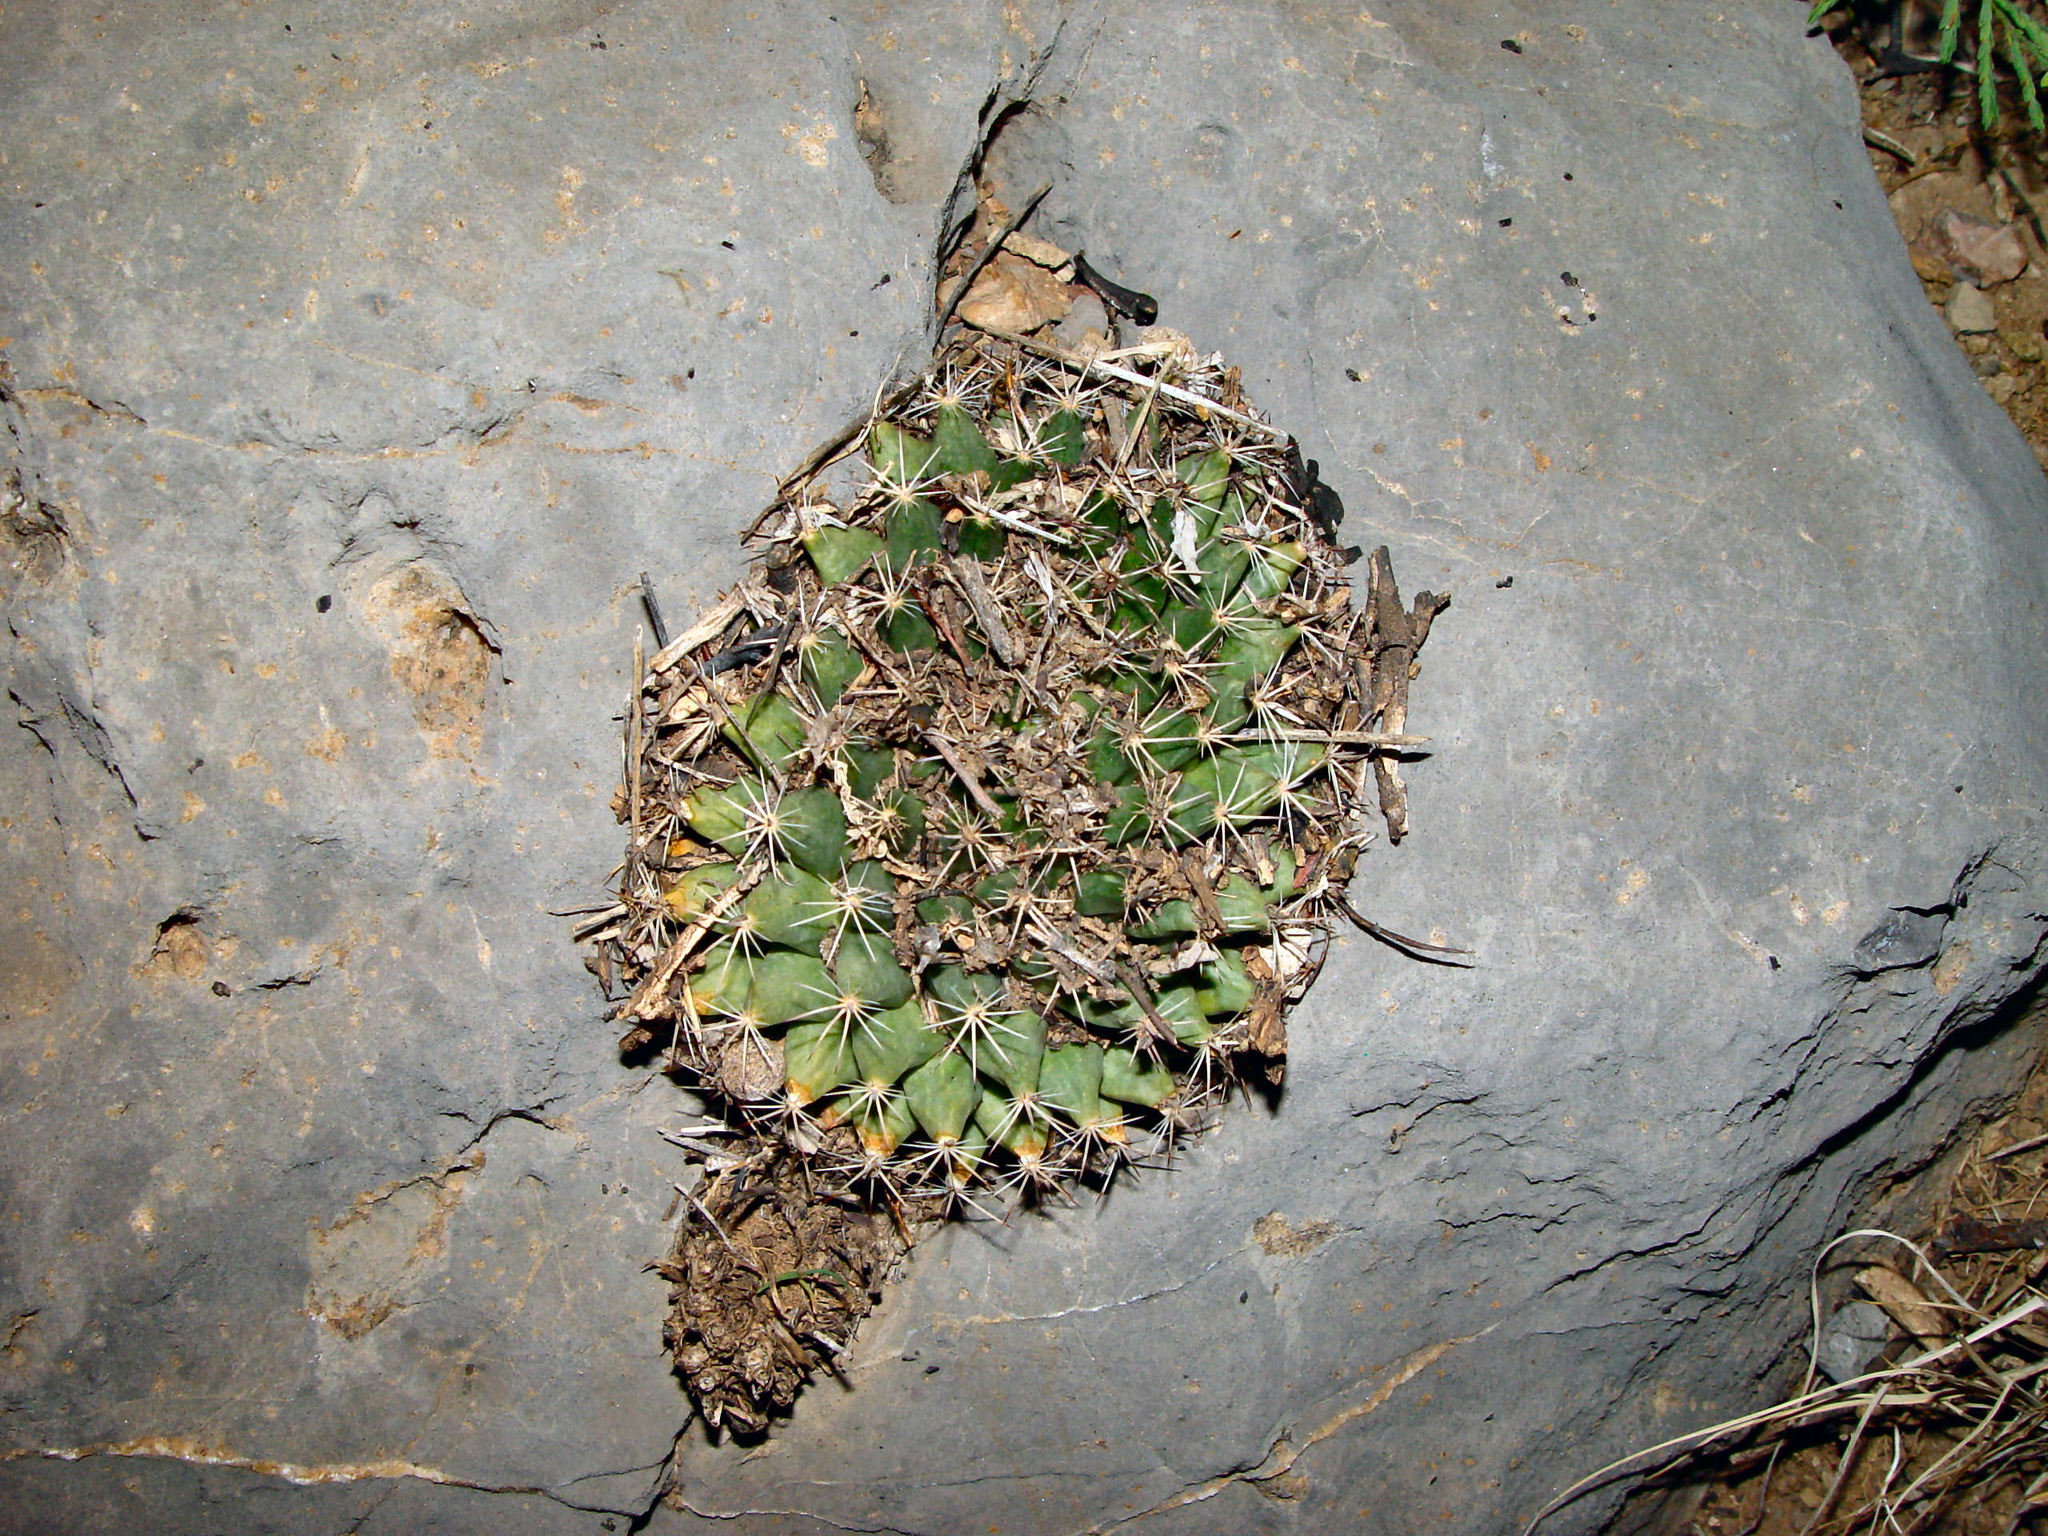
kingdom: Plantae
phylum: Tracheophyta
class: Magnoliopsida
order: Caryophyllales
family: Cactaceae
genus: Mammillaria
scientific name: Mammillaria heyderi
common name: Little nipple cactus
